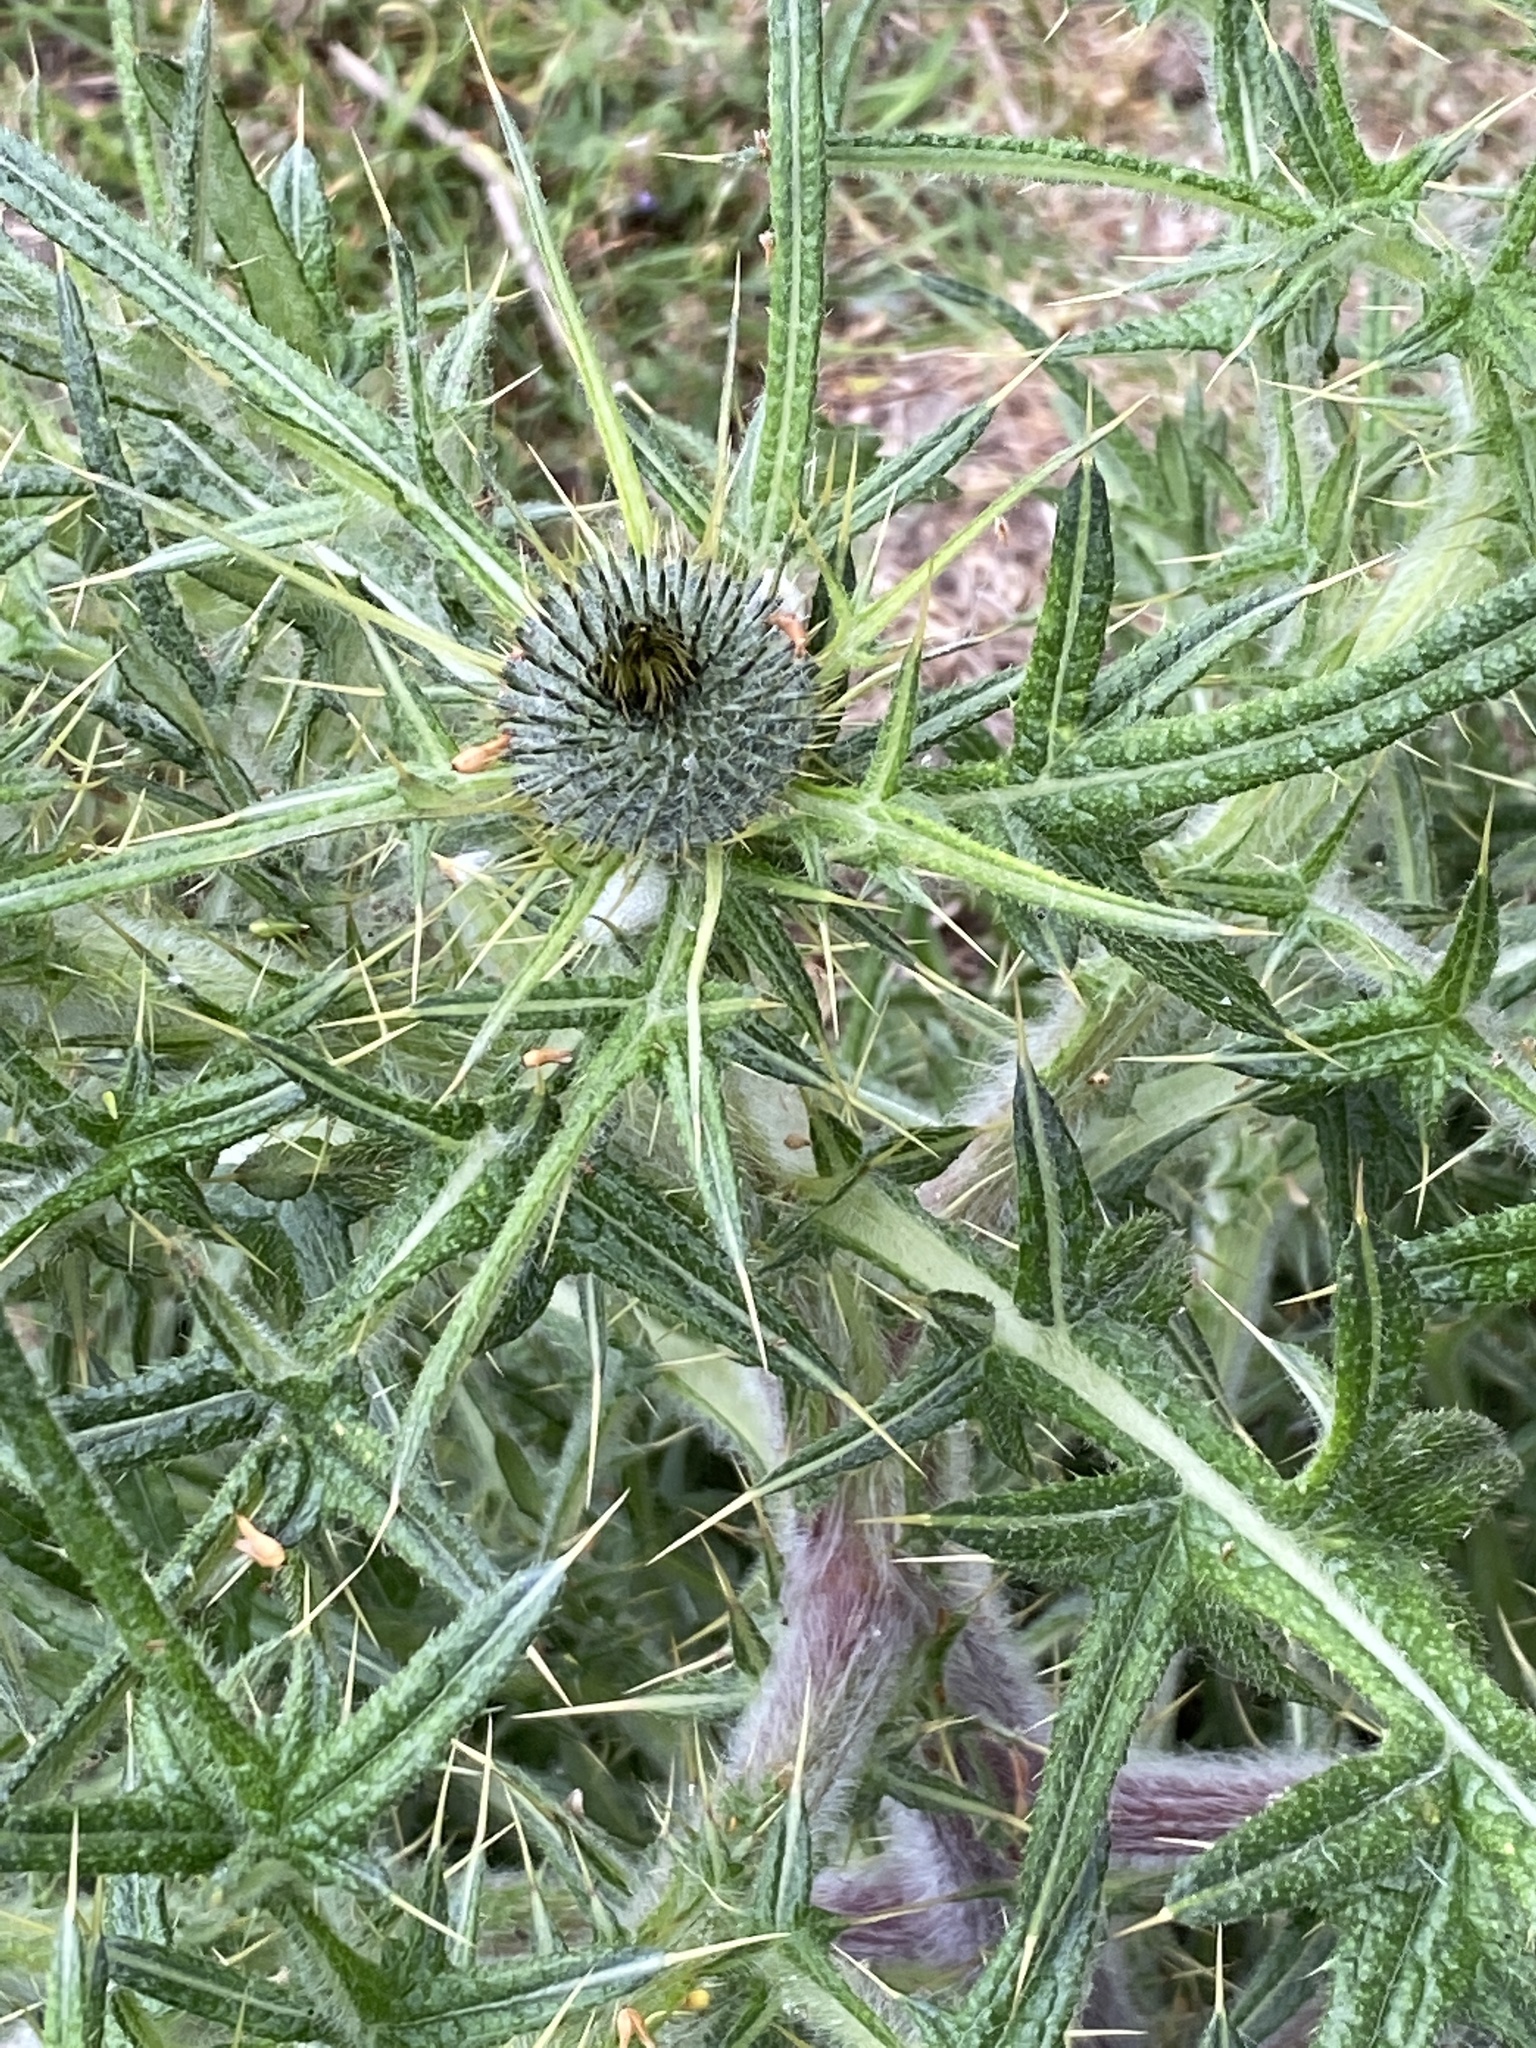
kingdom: Plantae
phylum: Tracheophyta
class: Magnoliopsida
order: Asterales
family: Asteraceae
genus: Cirsium
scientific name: Cirsium vulgare
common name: Bull thistle
